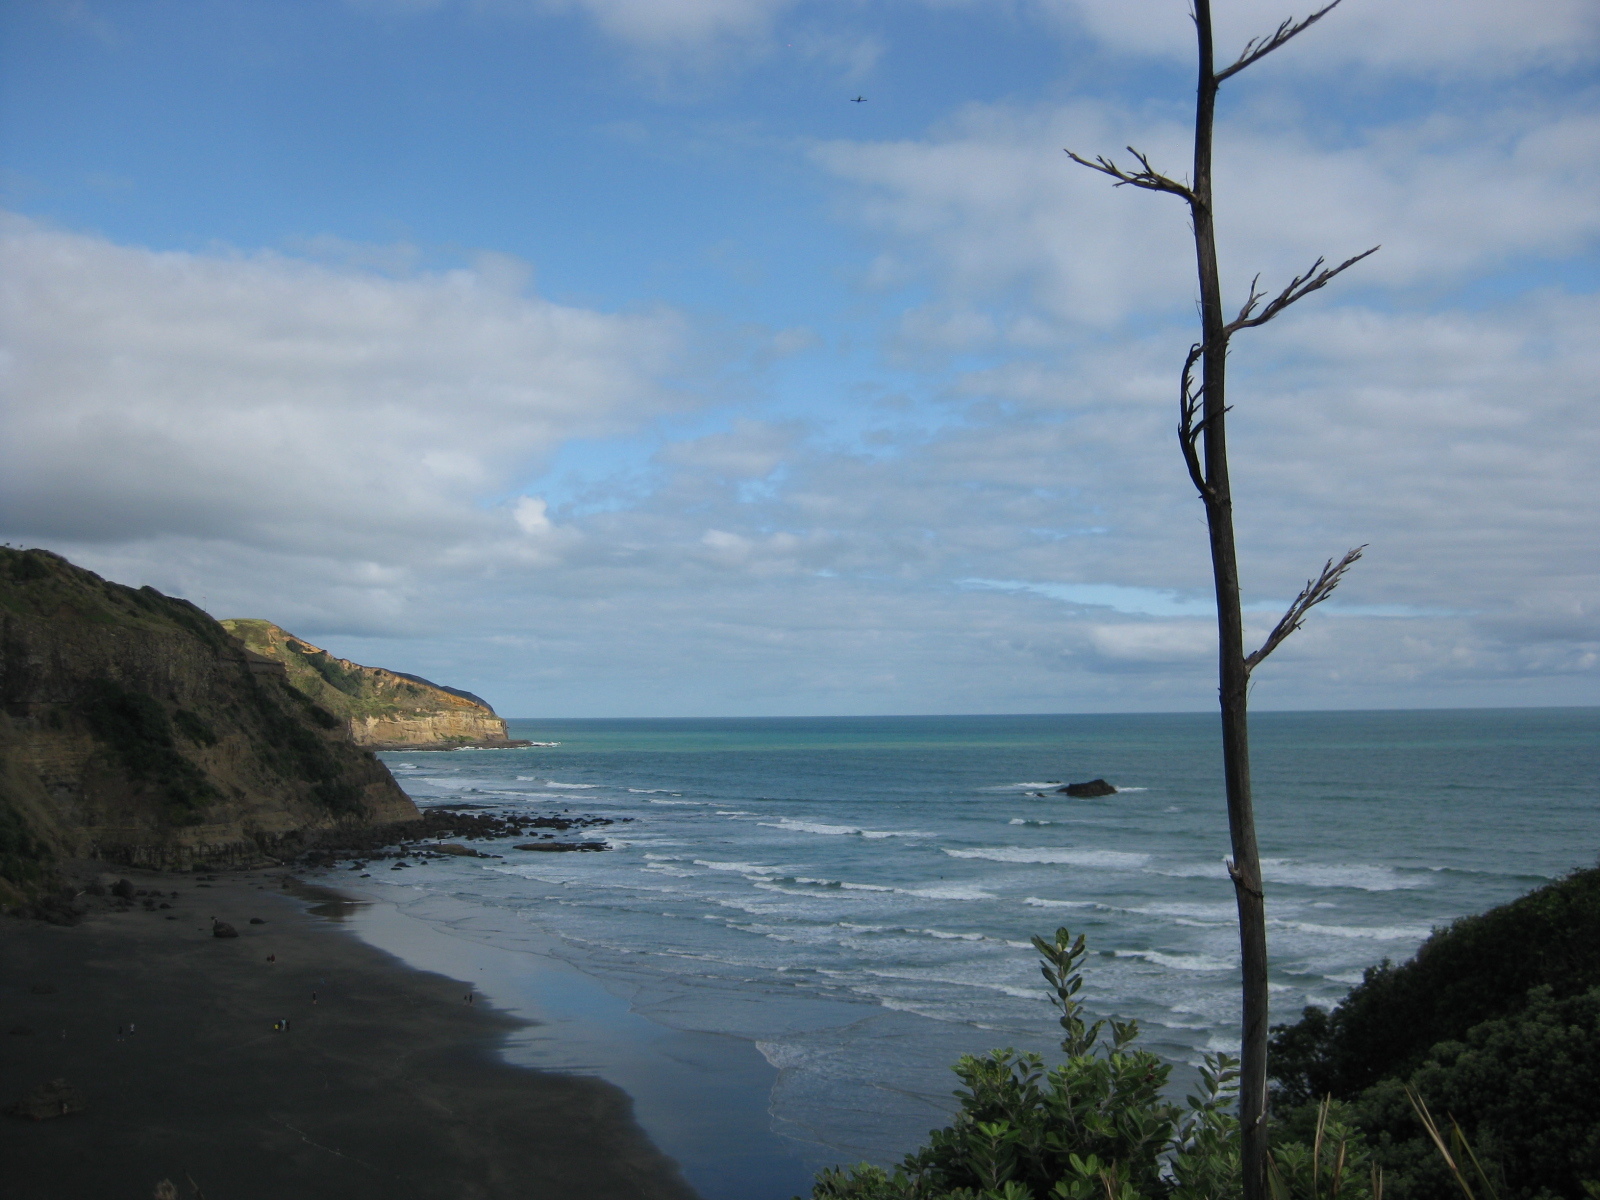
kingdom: Plantae
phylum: Tracheophyta
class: Liliopsida
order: Asparagales
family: Asphodelaceae
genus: Phormium
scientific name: Phormium tenax
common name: New zealand flax
